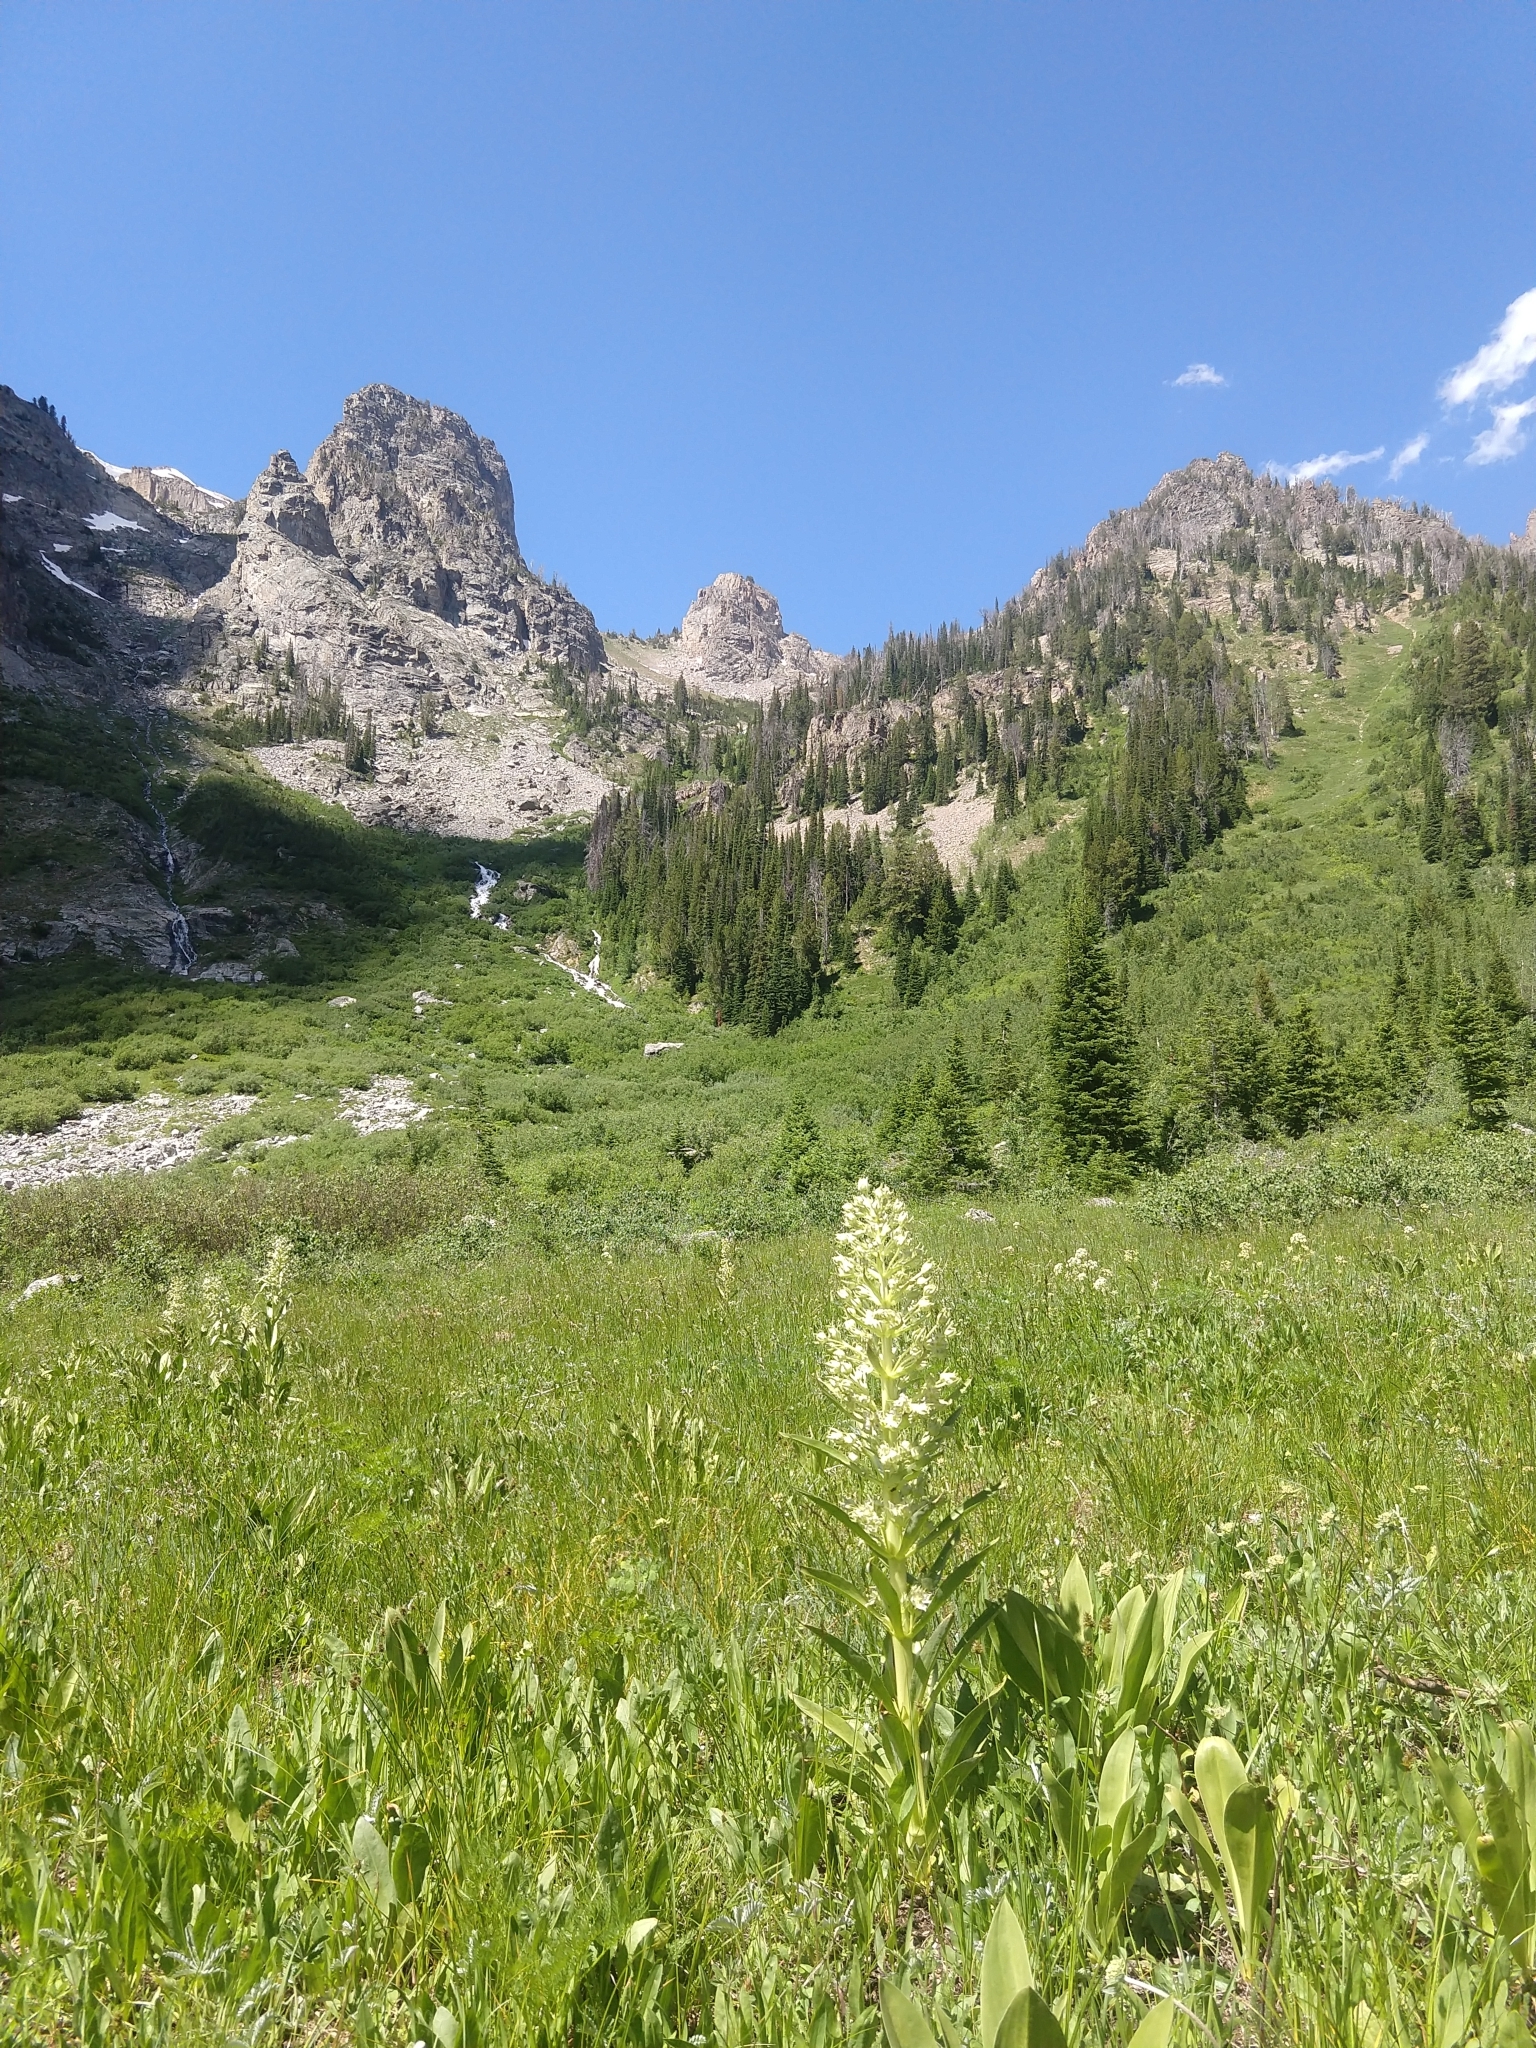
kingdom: Plantae
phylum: Tracheophyta
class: Magnoliopsida
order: Gentianales
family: Gentianaceae
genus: Frasera
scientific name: Frasera speciosa
